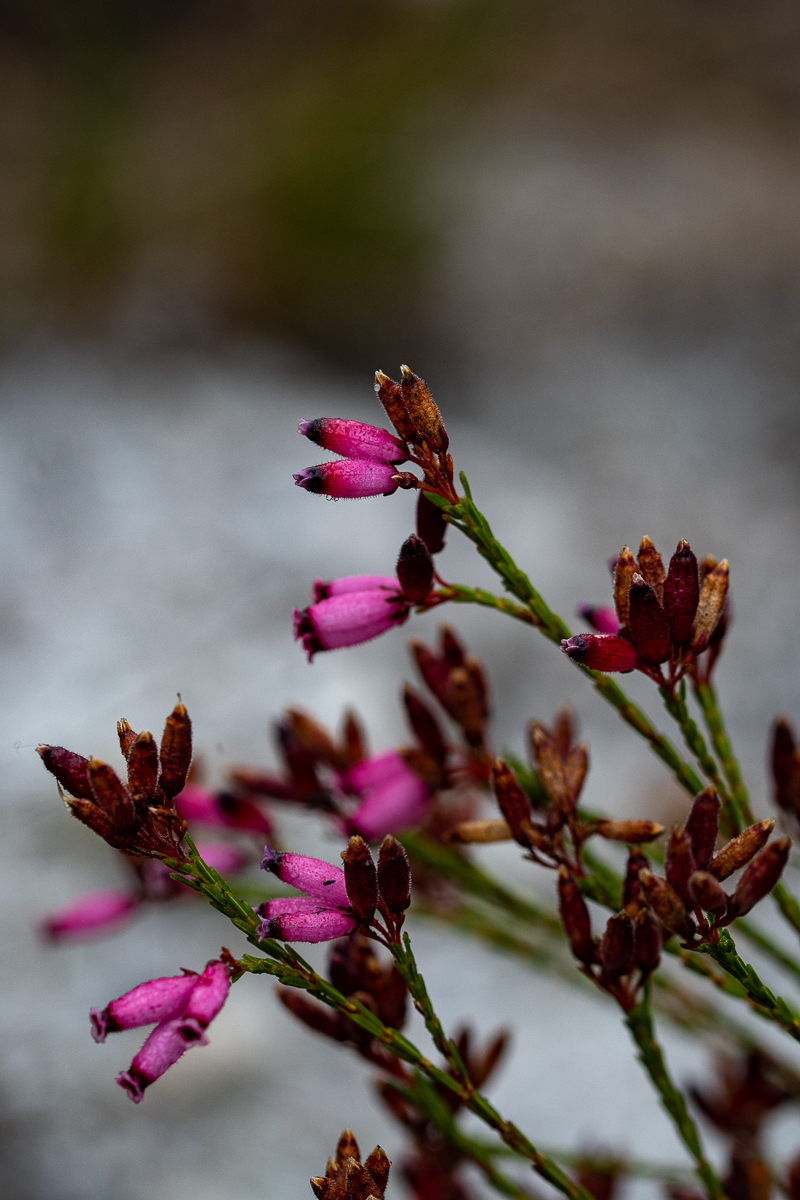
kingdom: Plantae
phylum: Tracheophyta
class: Magnoliopsida
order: Ericales
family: Ericaceae
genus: Erica
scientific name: Erica cristata
